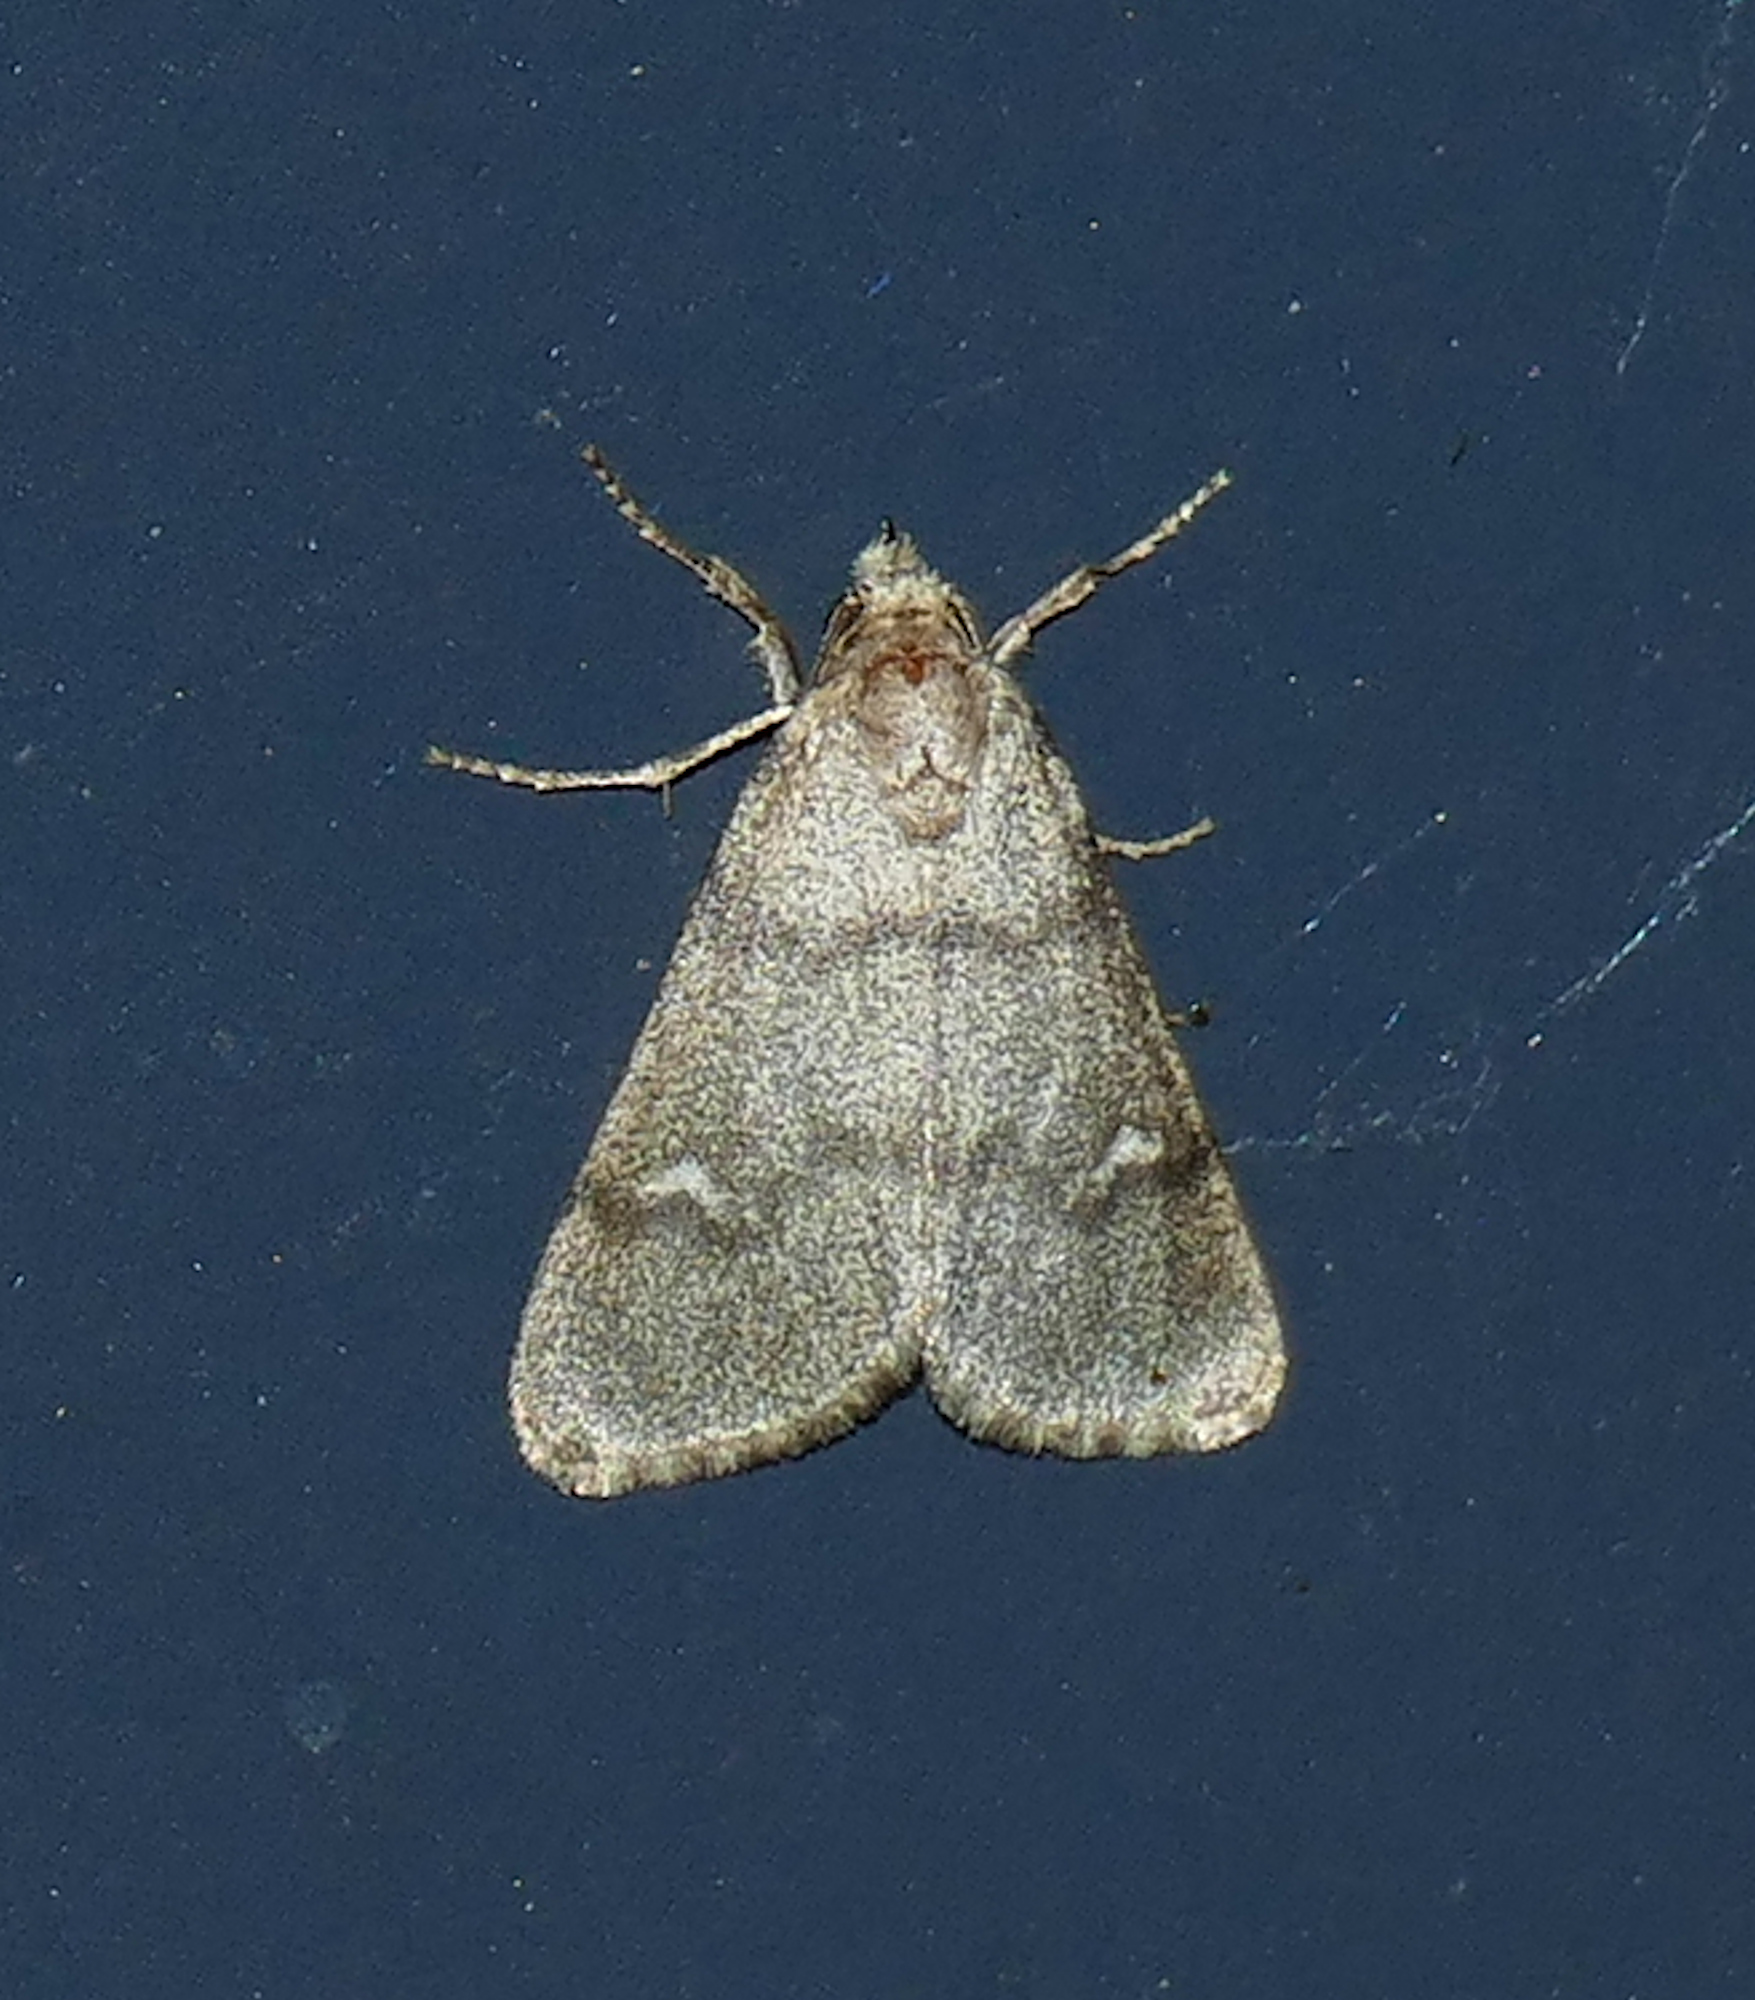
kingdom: Animalia
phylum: Arthropoda
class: Insecta
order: Lepidoptera
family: Noctuidae
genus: Narthecophora
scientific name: Narthecophora pulverea
